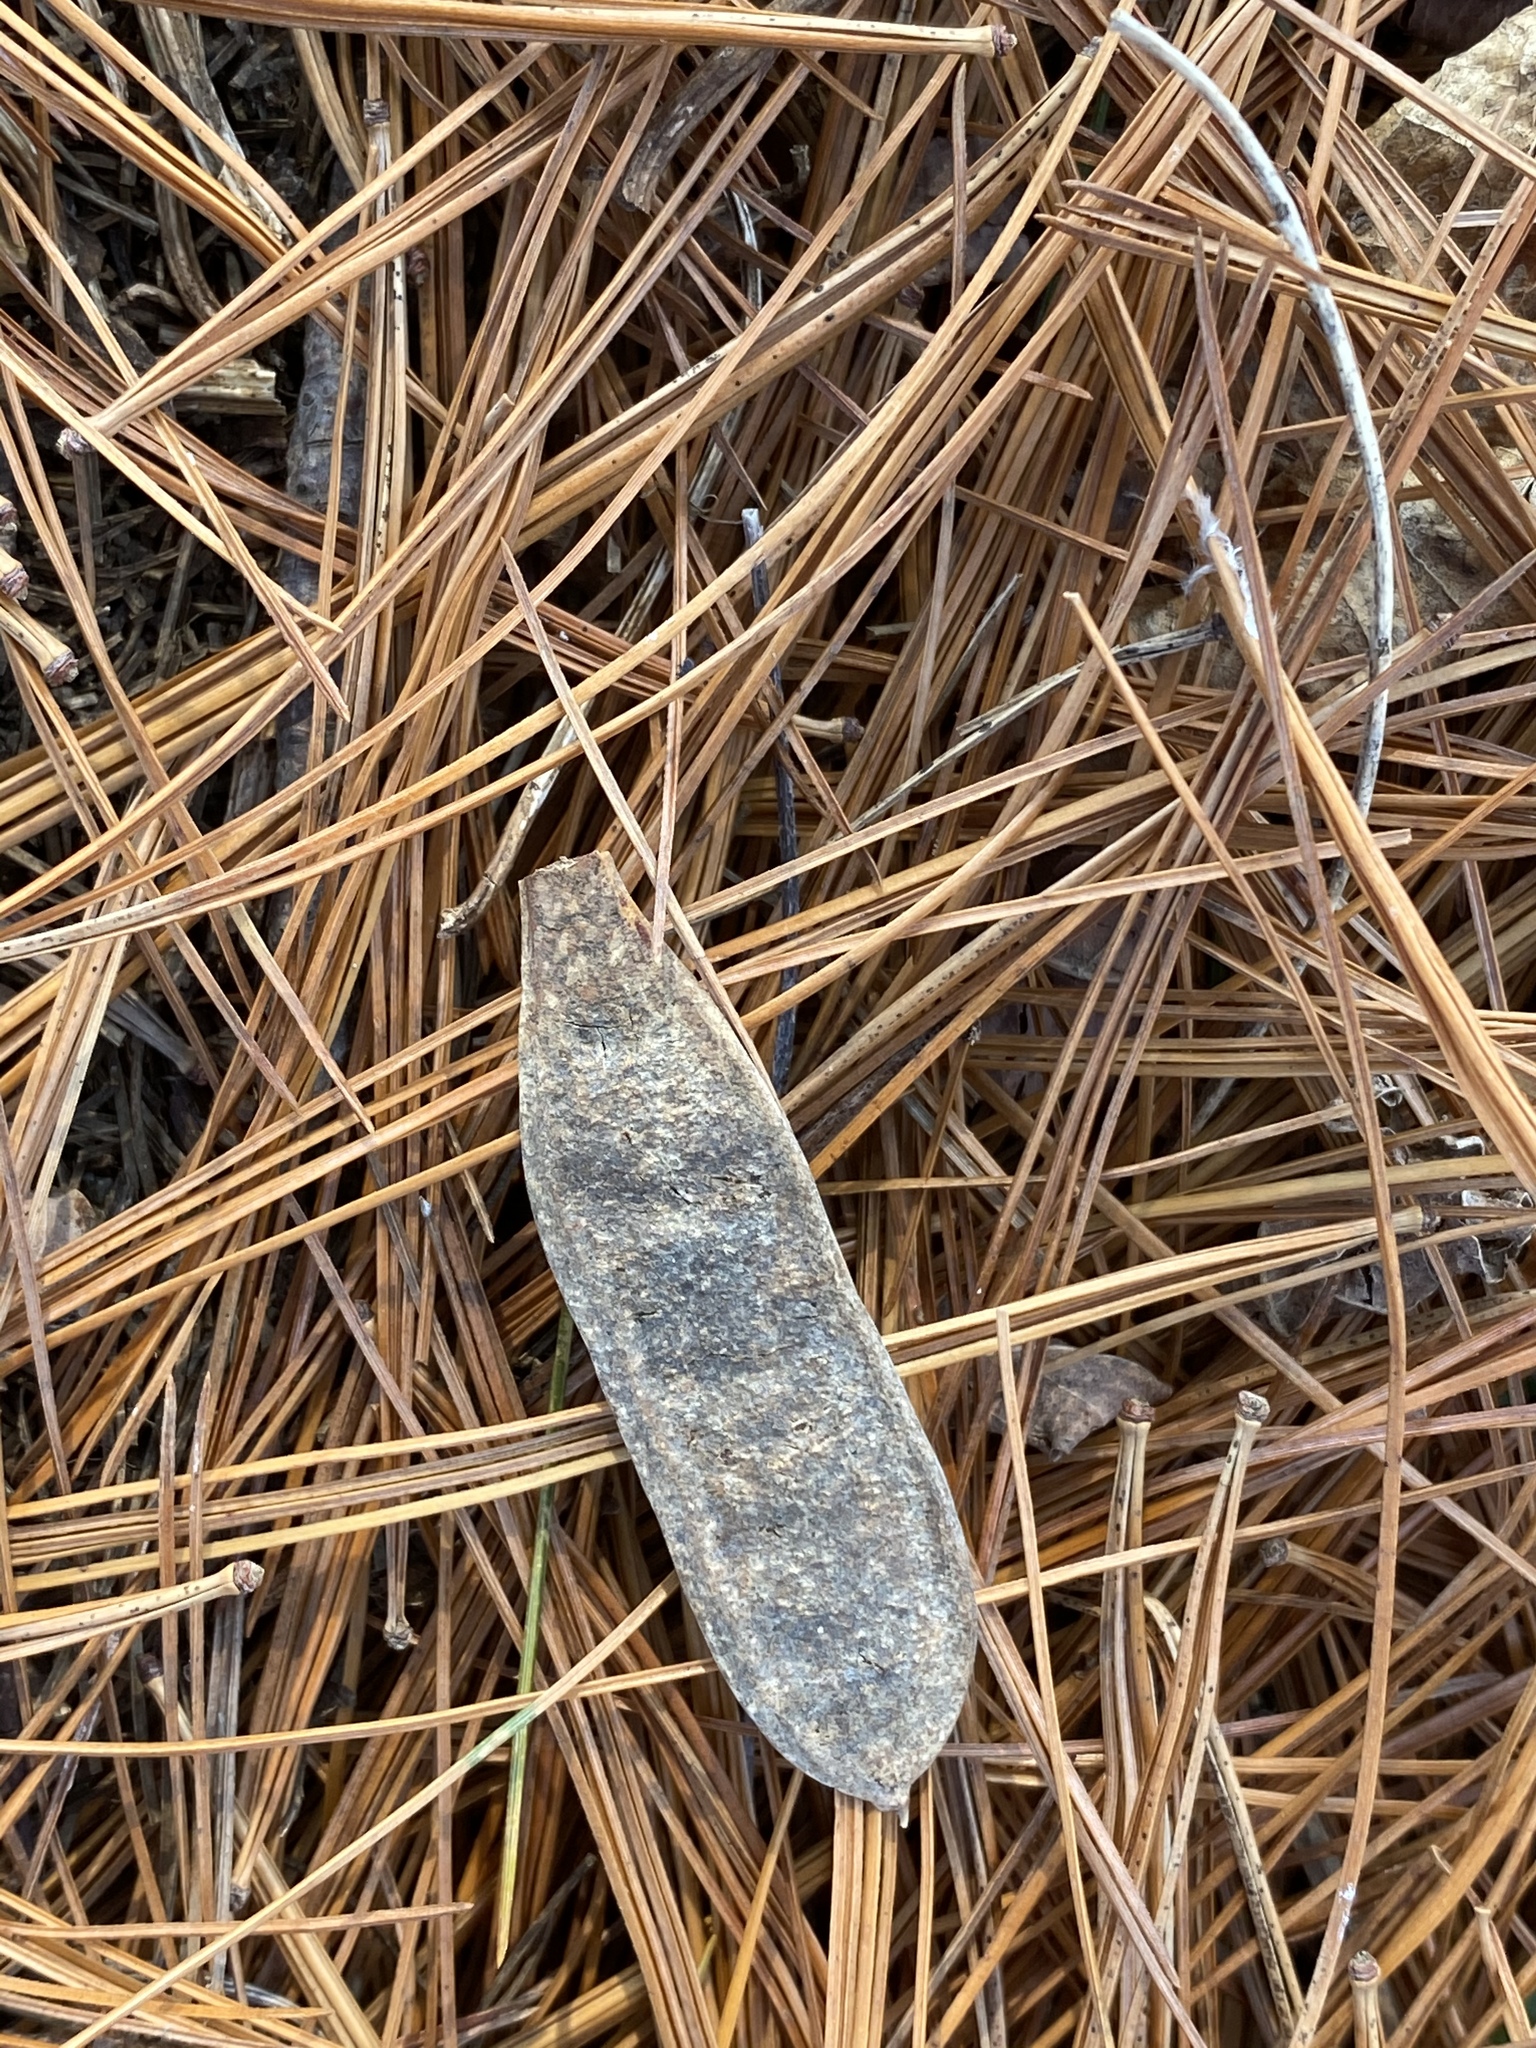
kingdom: Plantae
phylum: Tracheophyta
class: Magnoliopsida
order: Fabales
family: Fabaceae
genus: Robinia
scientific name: Robinia pseudoacacia
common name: Black locust
